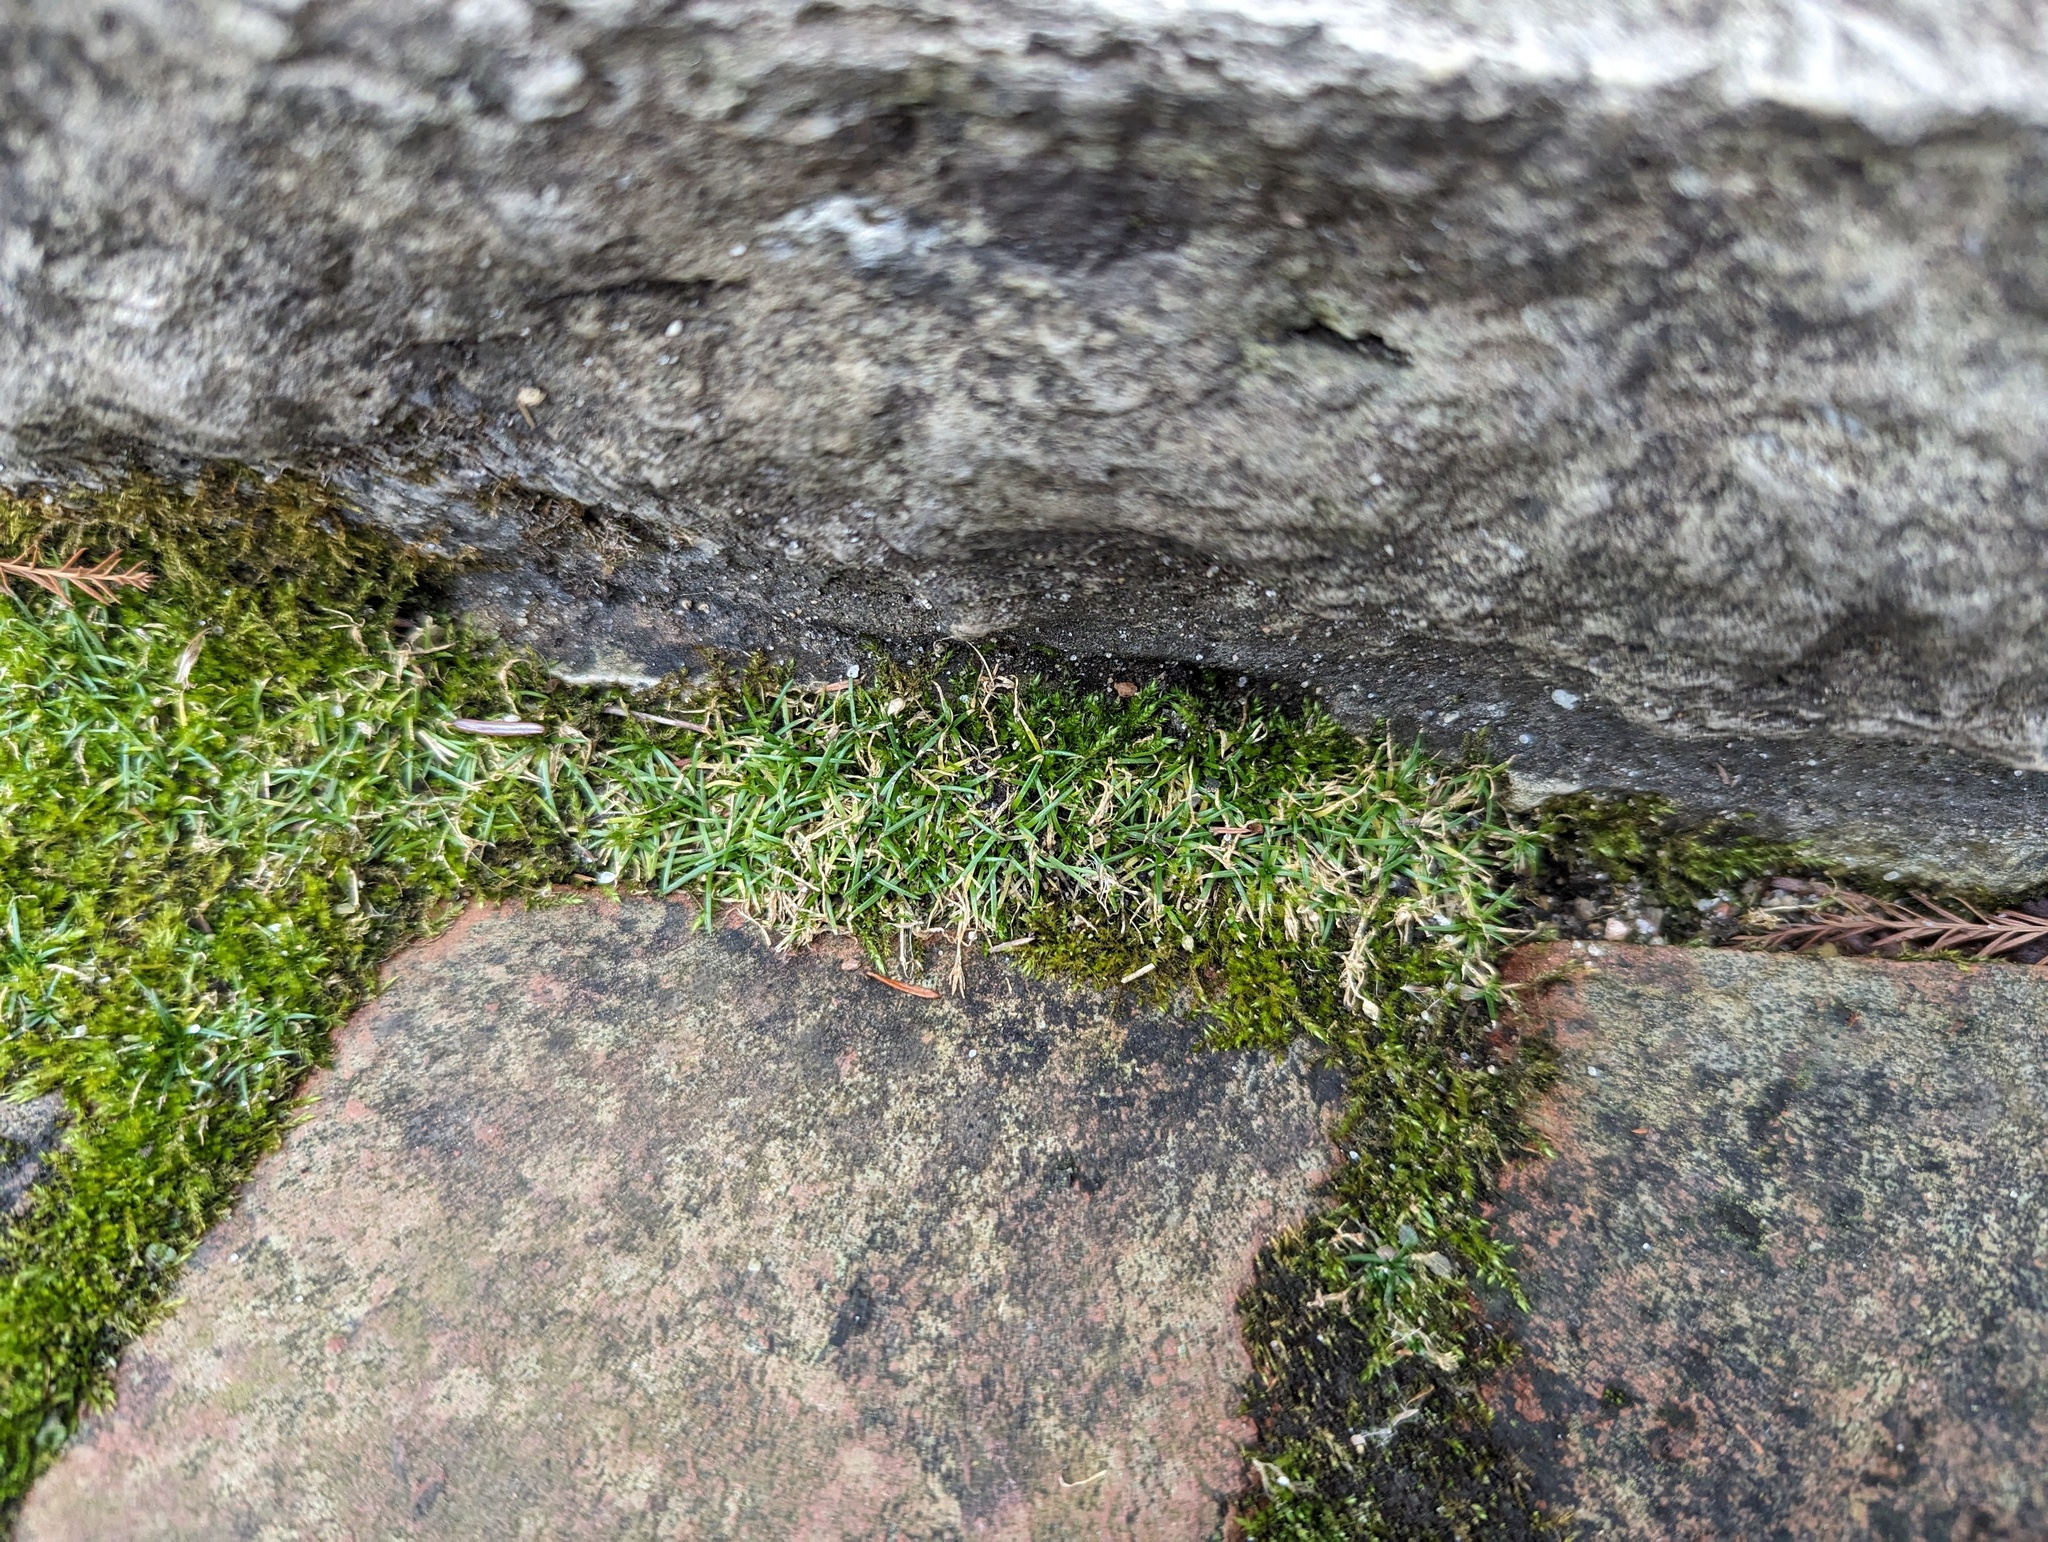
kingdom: Plantae
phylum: Tracheophyta
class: Magnoliopsida
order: Caryophyllales
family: Caryophyllaceae
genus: Sagina
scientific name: Sagina procumbens
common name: Procumbent pearlwort
